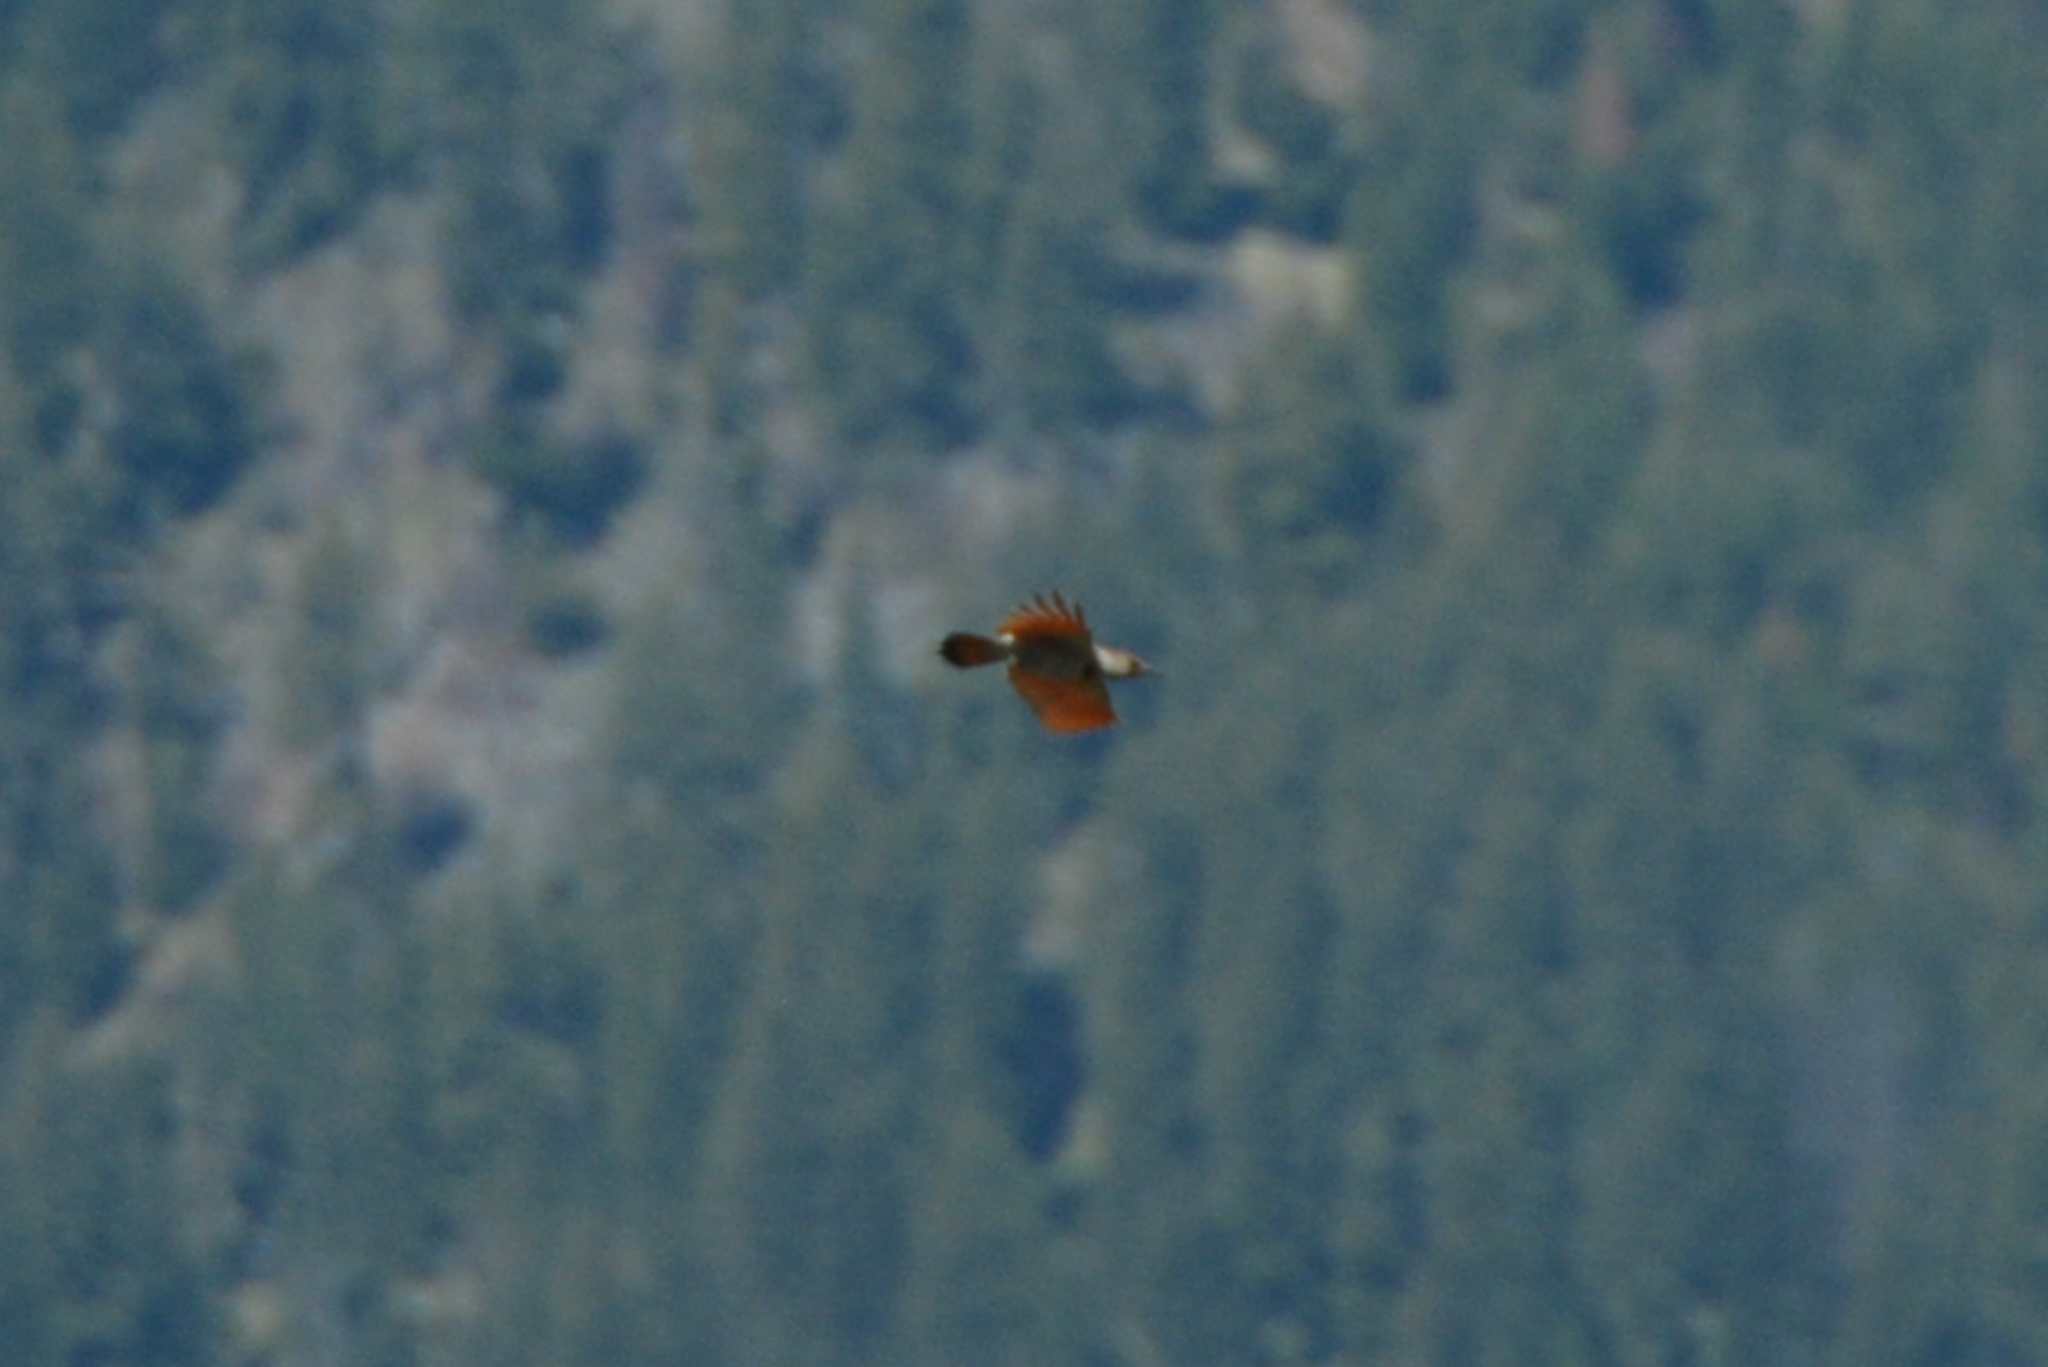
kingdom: Animalia
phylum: Chordata
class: Aves
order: Piciformes
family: Picidae
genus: Colaptes
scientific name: Colaptes auratus
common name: Northern flicker
